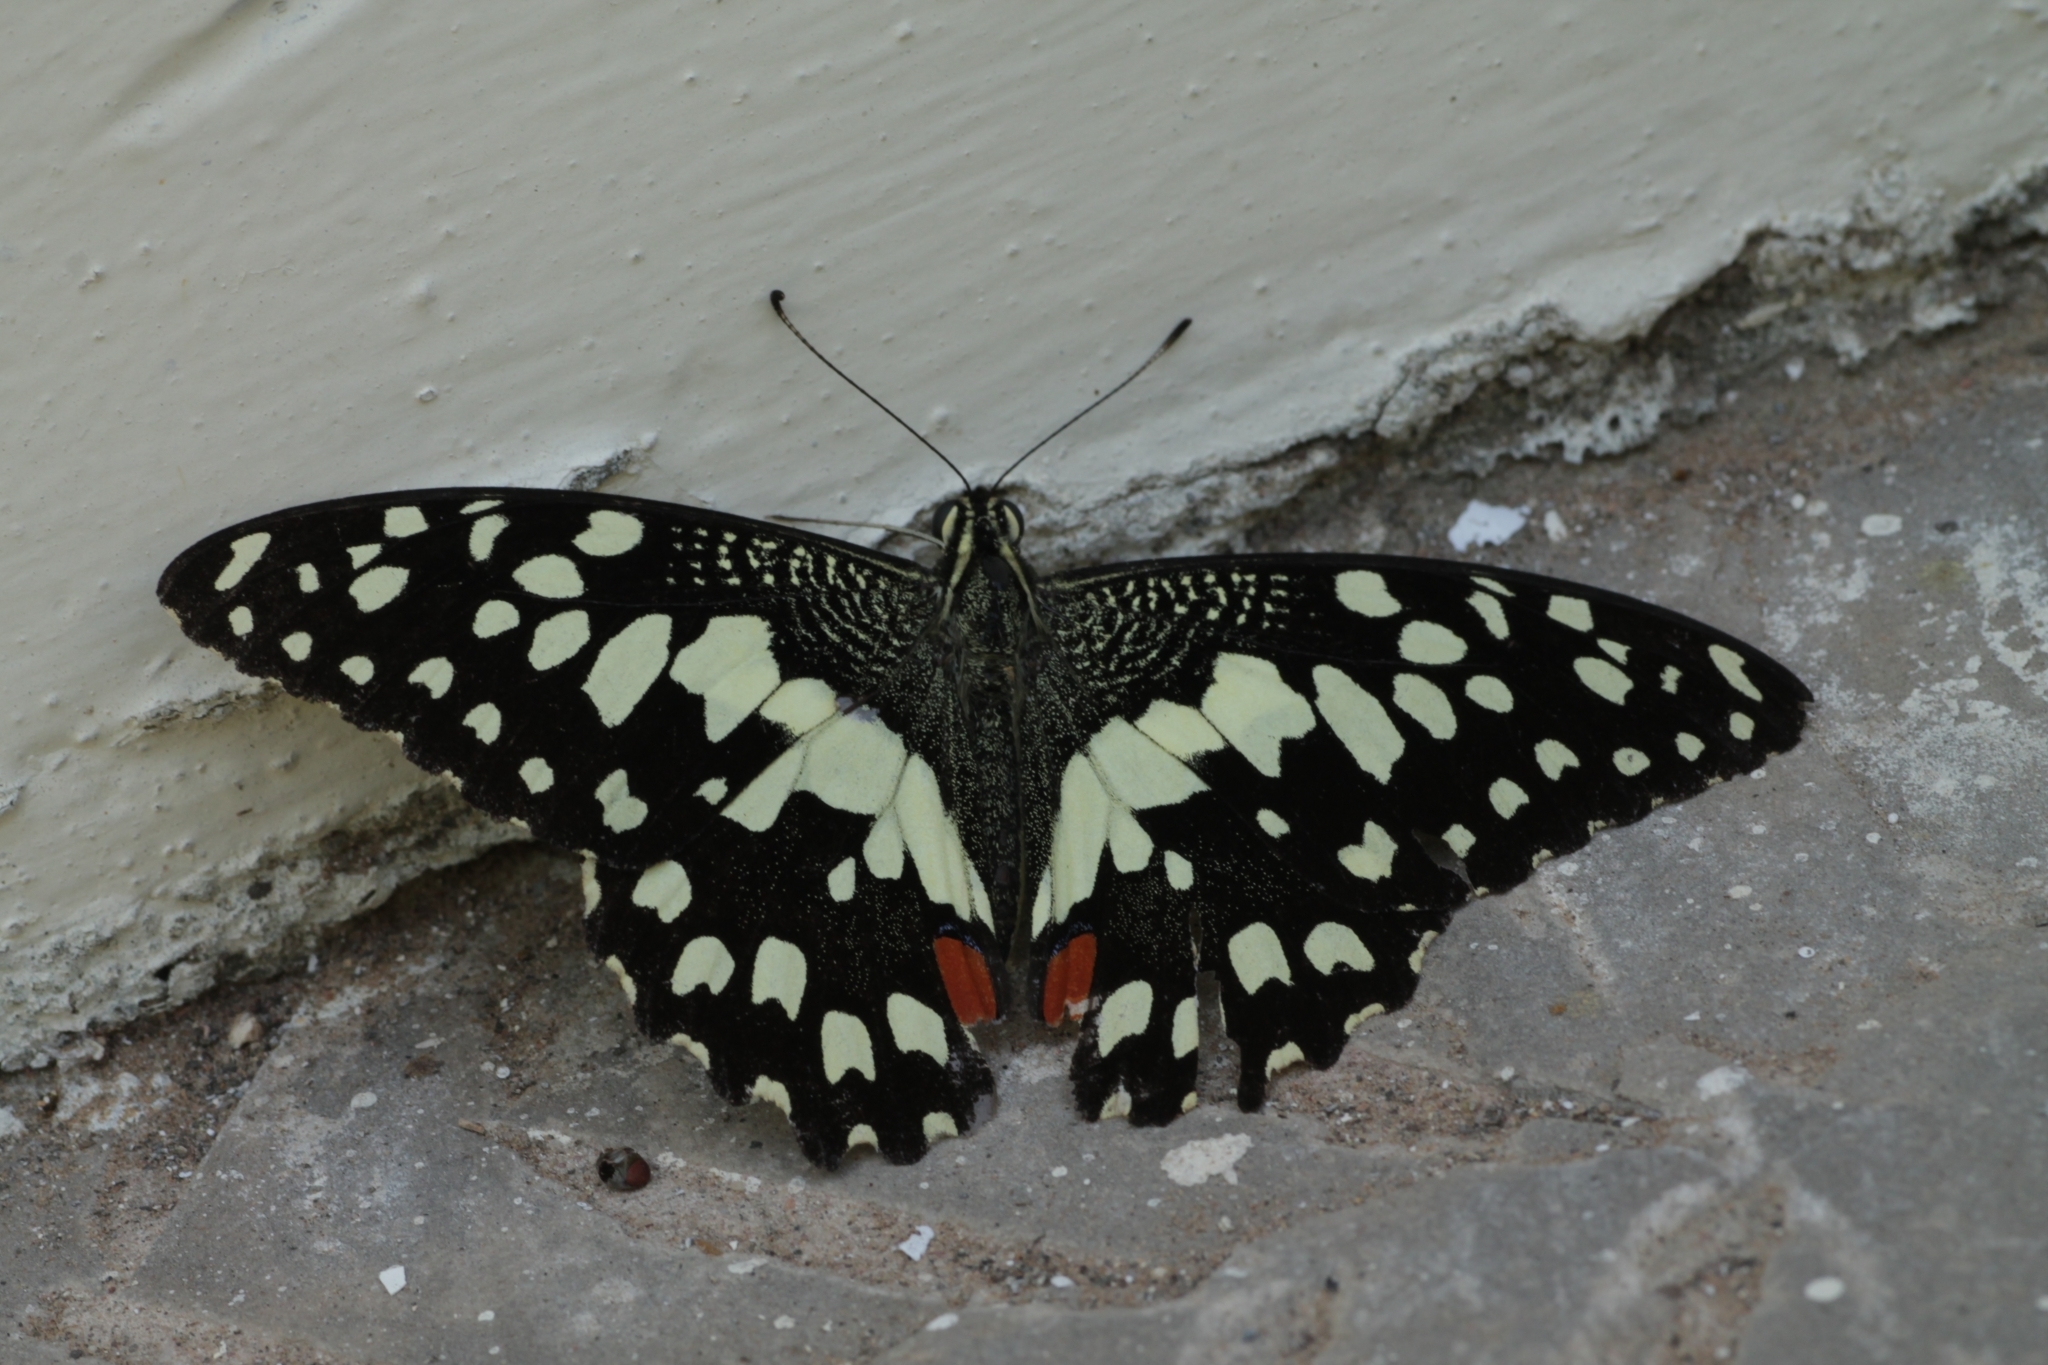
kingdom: Animalia
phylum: Arthropoda
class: Insecta
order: Lepidoptera
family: Papilionidae
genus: Papilio
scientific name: Papilio demoleus
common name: Lime butterfly
